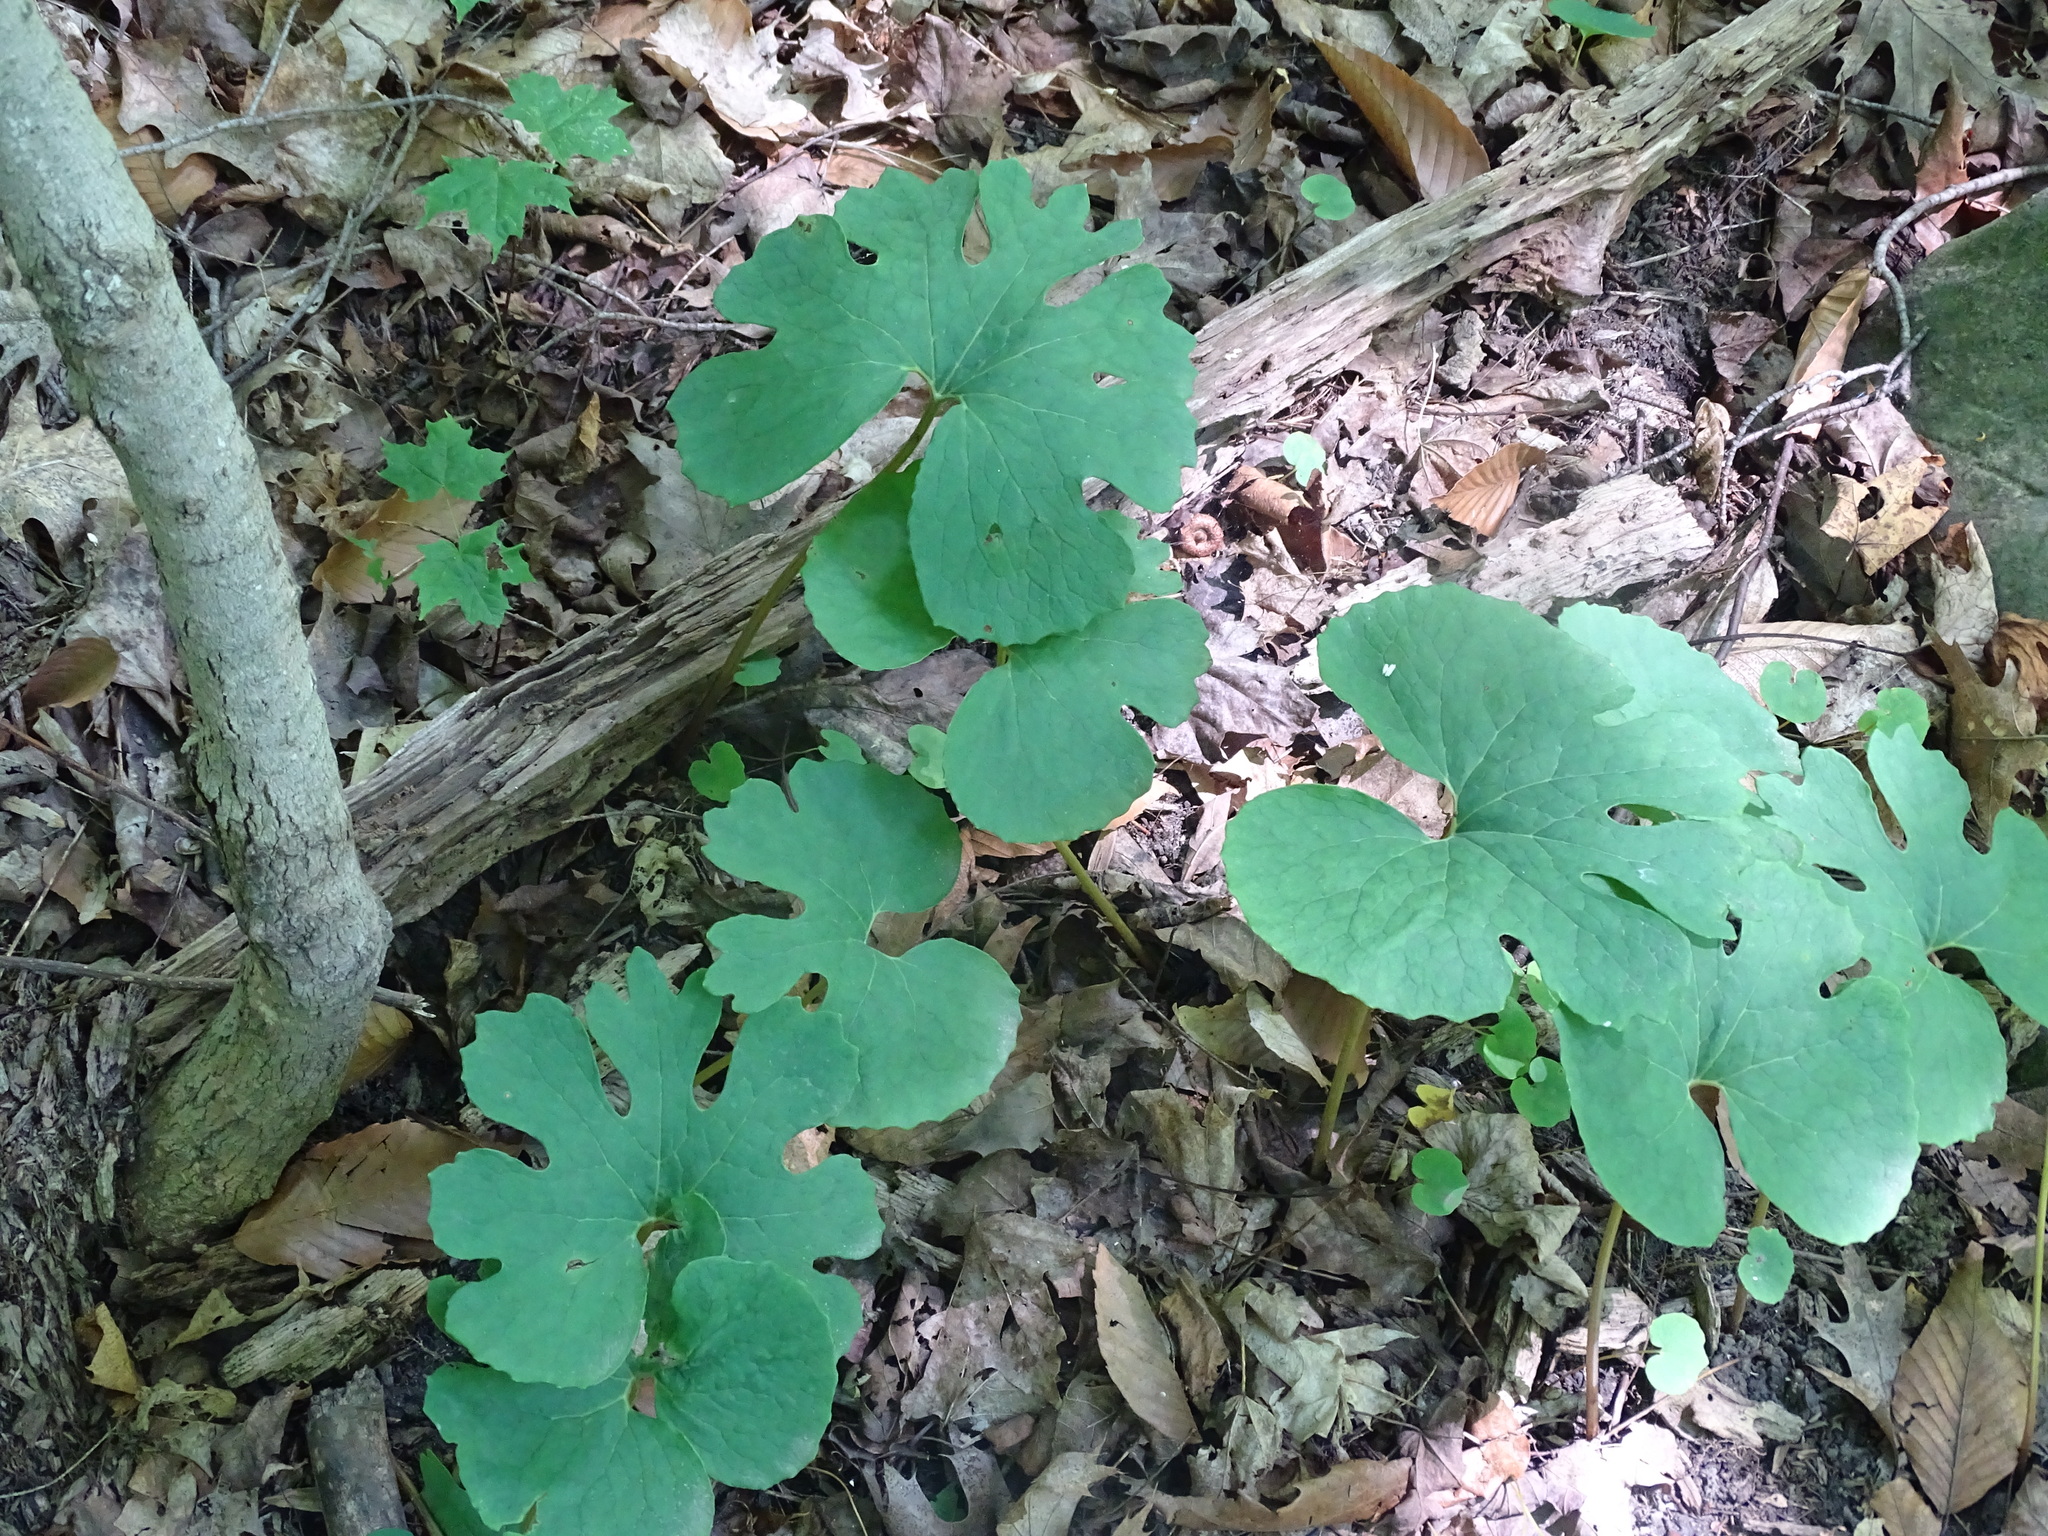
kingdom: Plantae
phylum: Tracheophyta
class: Magnoliopsida
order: Ranunculales
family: Papaveraceae
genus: Sanguinaria
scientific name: Sanguinaria canadensis
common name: Bloodroot
